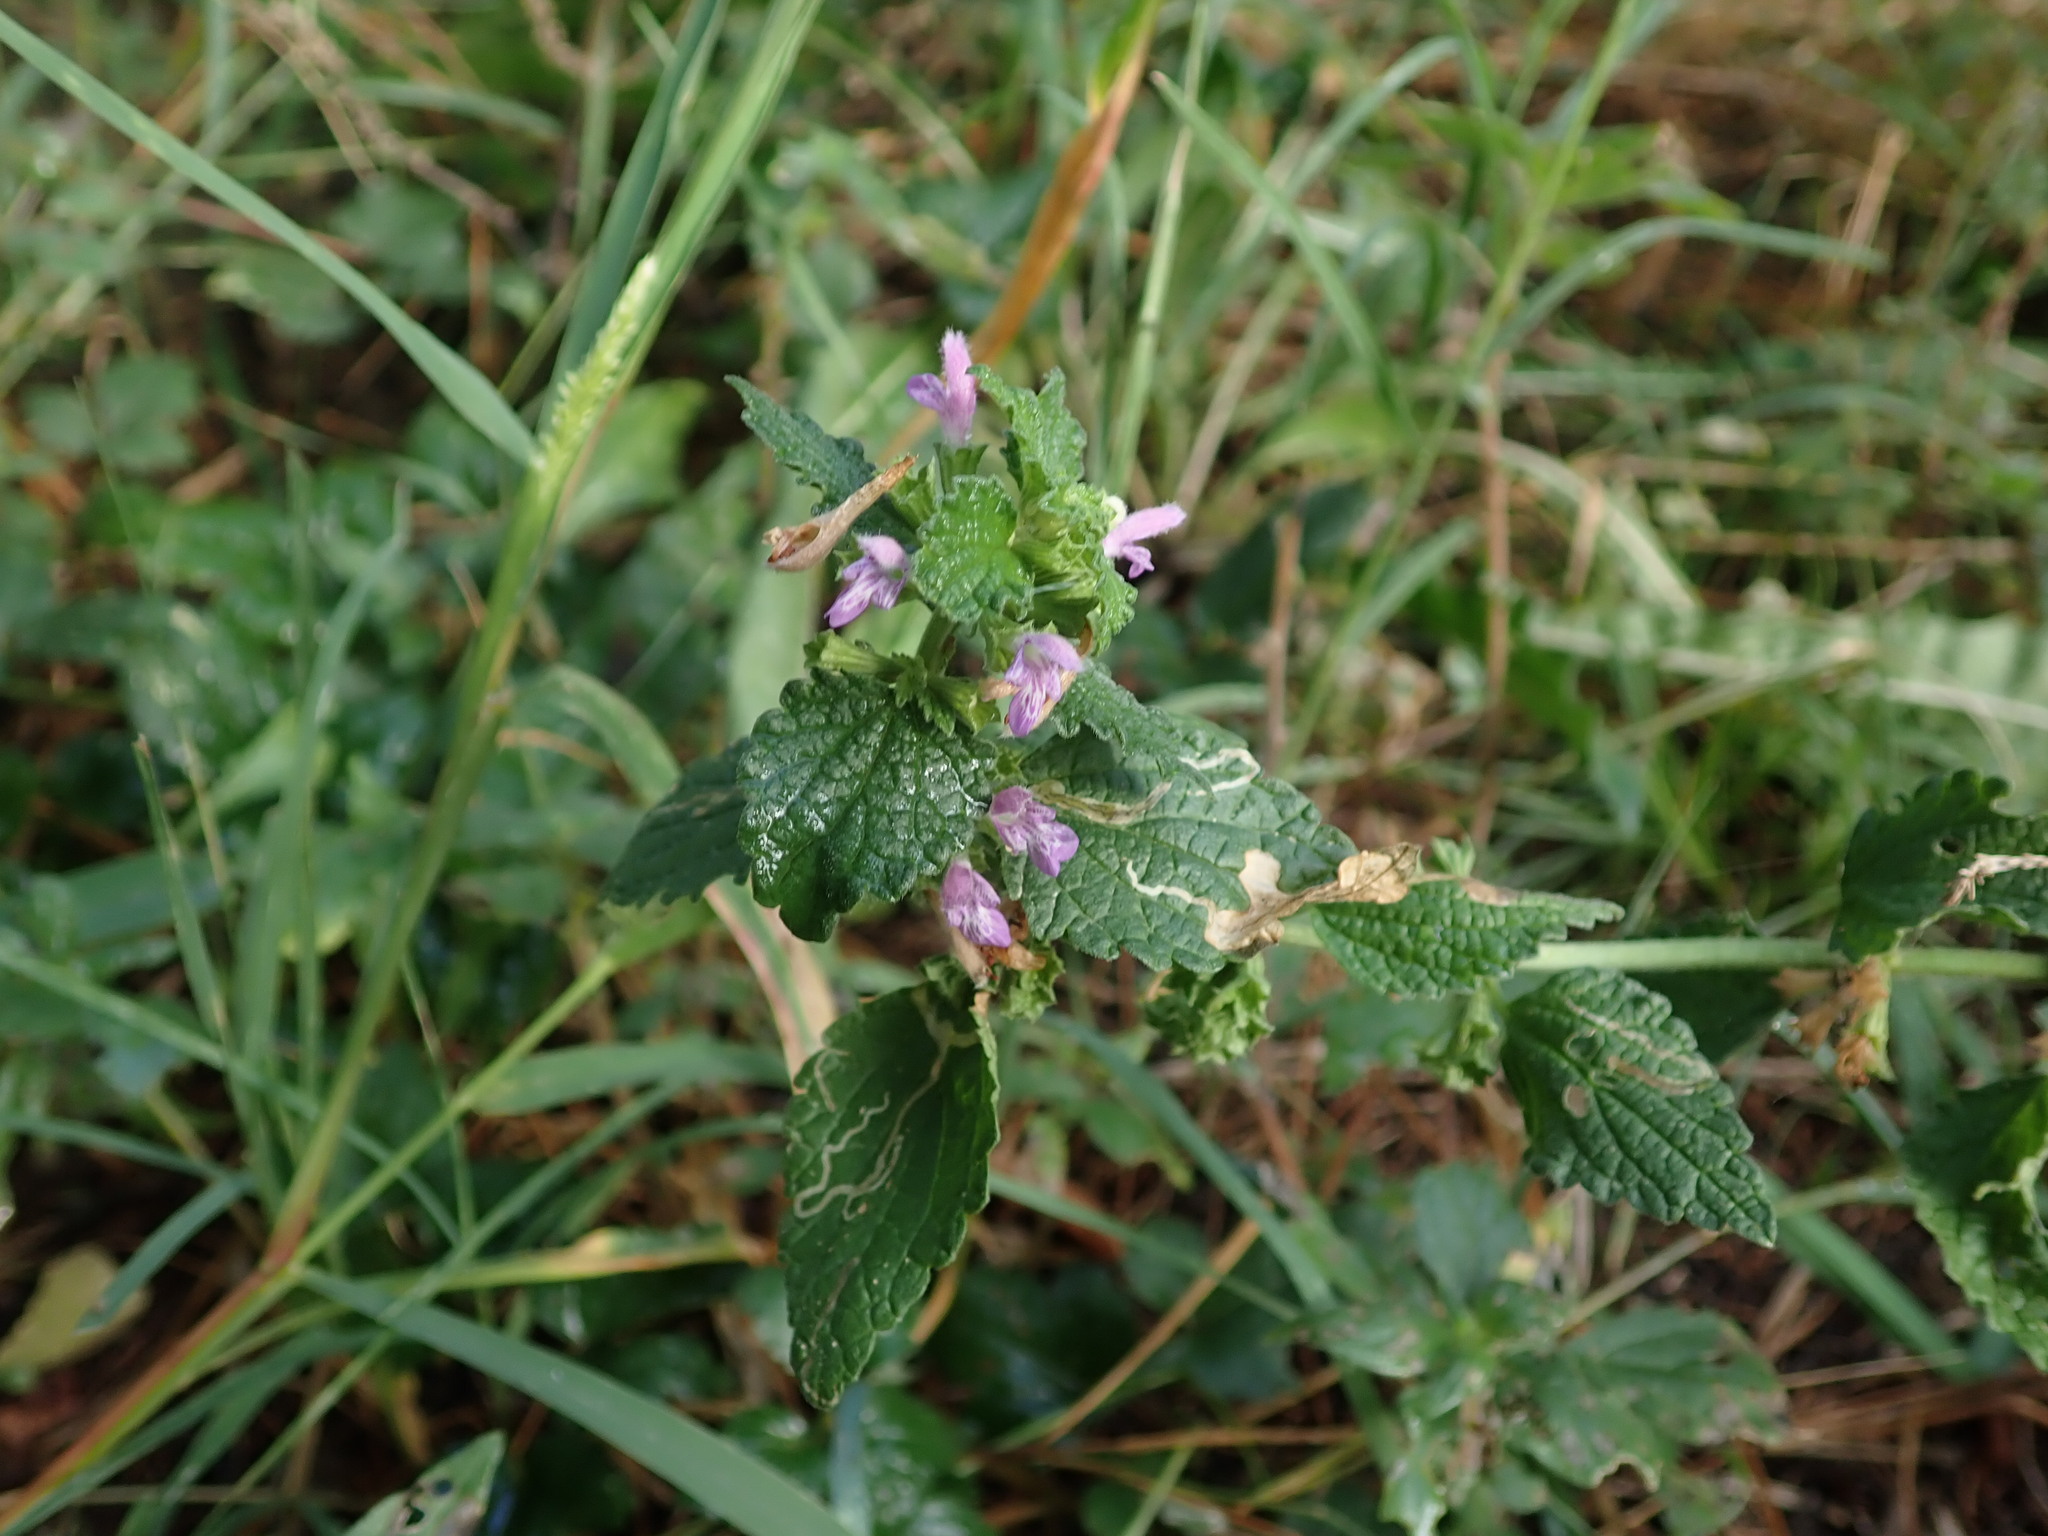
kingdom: Plantae
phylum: Tracheophyta
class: Magnoliopsida
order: Lamiales
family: Lamiaceae
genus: Ballota
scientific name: Ballota nigra
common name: Black horehound
